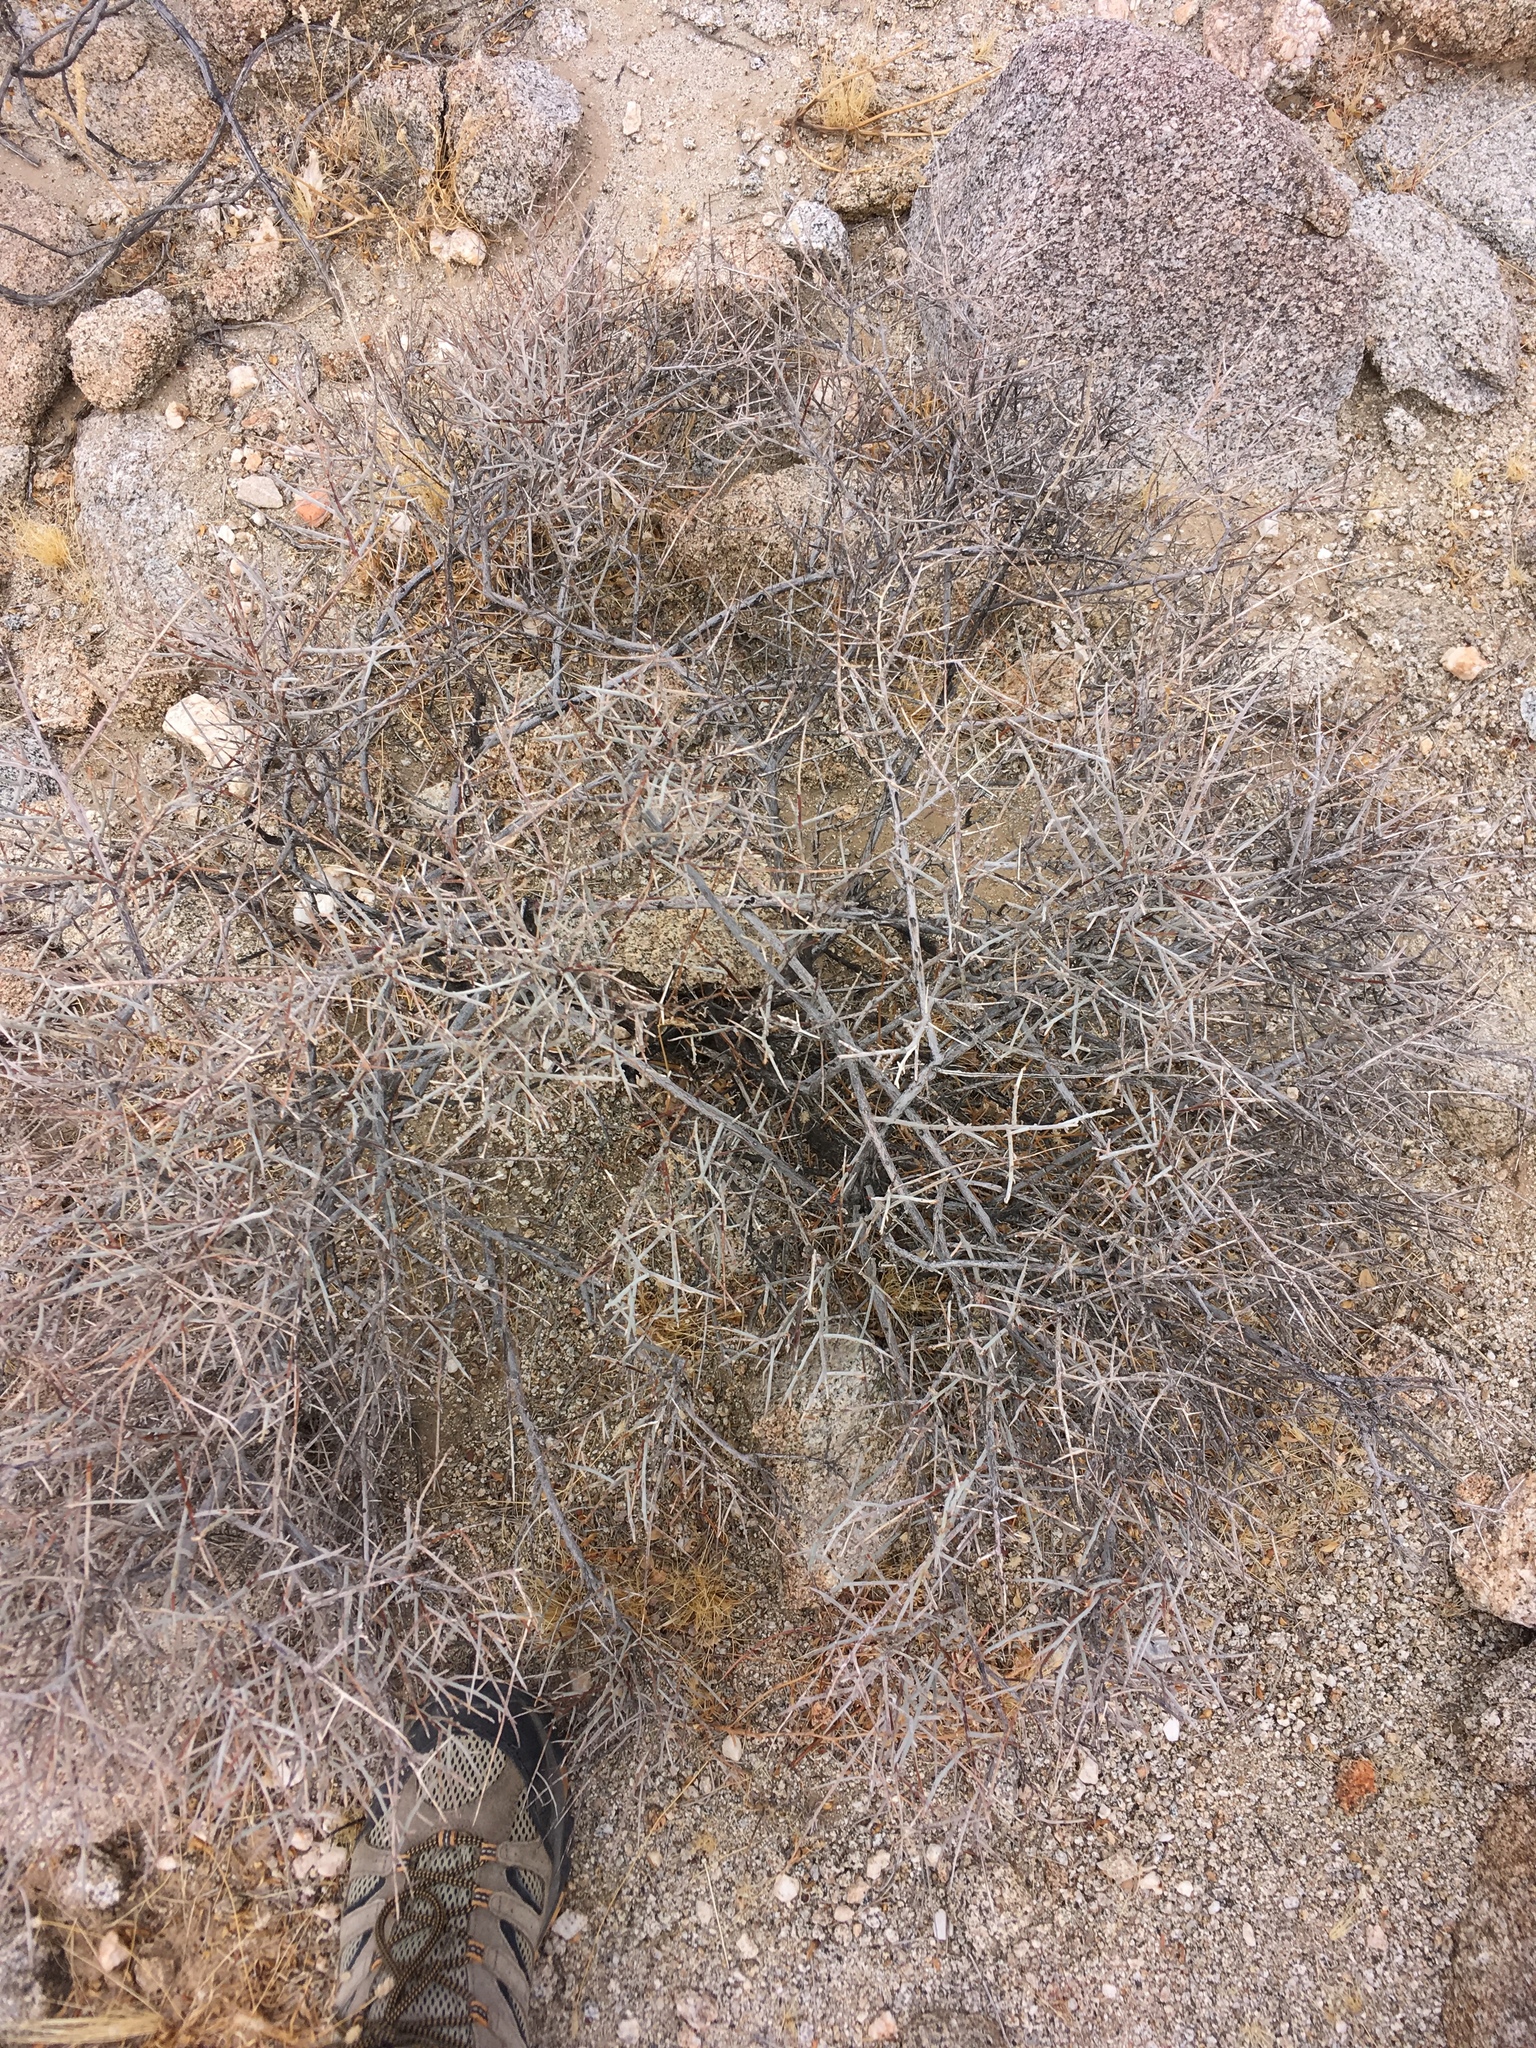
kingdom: Plantae
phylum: Tracheophyta
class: Magnoliopsida
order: Zygophyllales
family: Krameriaceae
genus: Krameria
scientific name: Krameria bicolor
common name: White ratany
